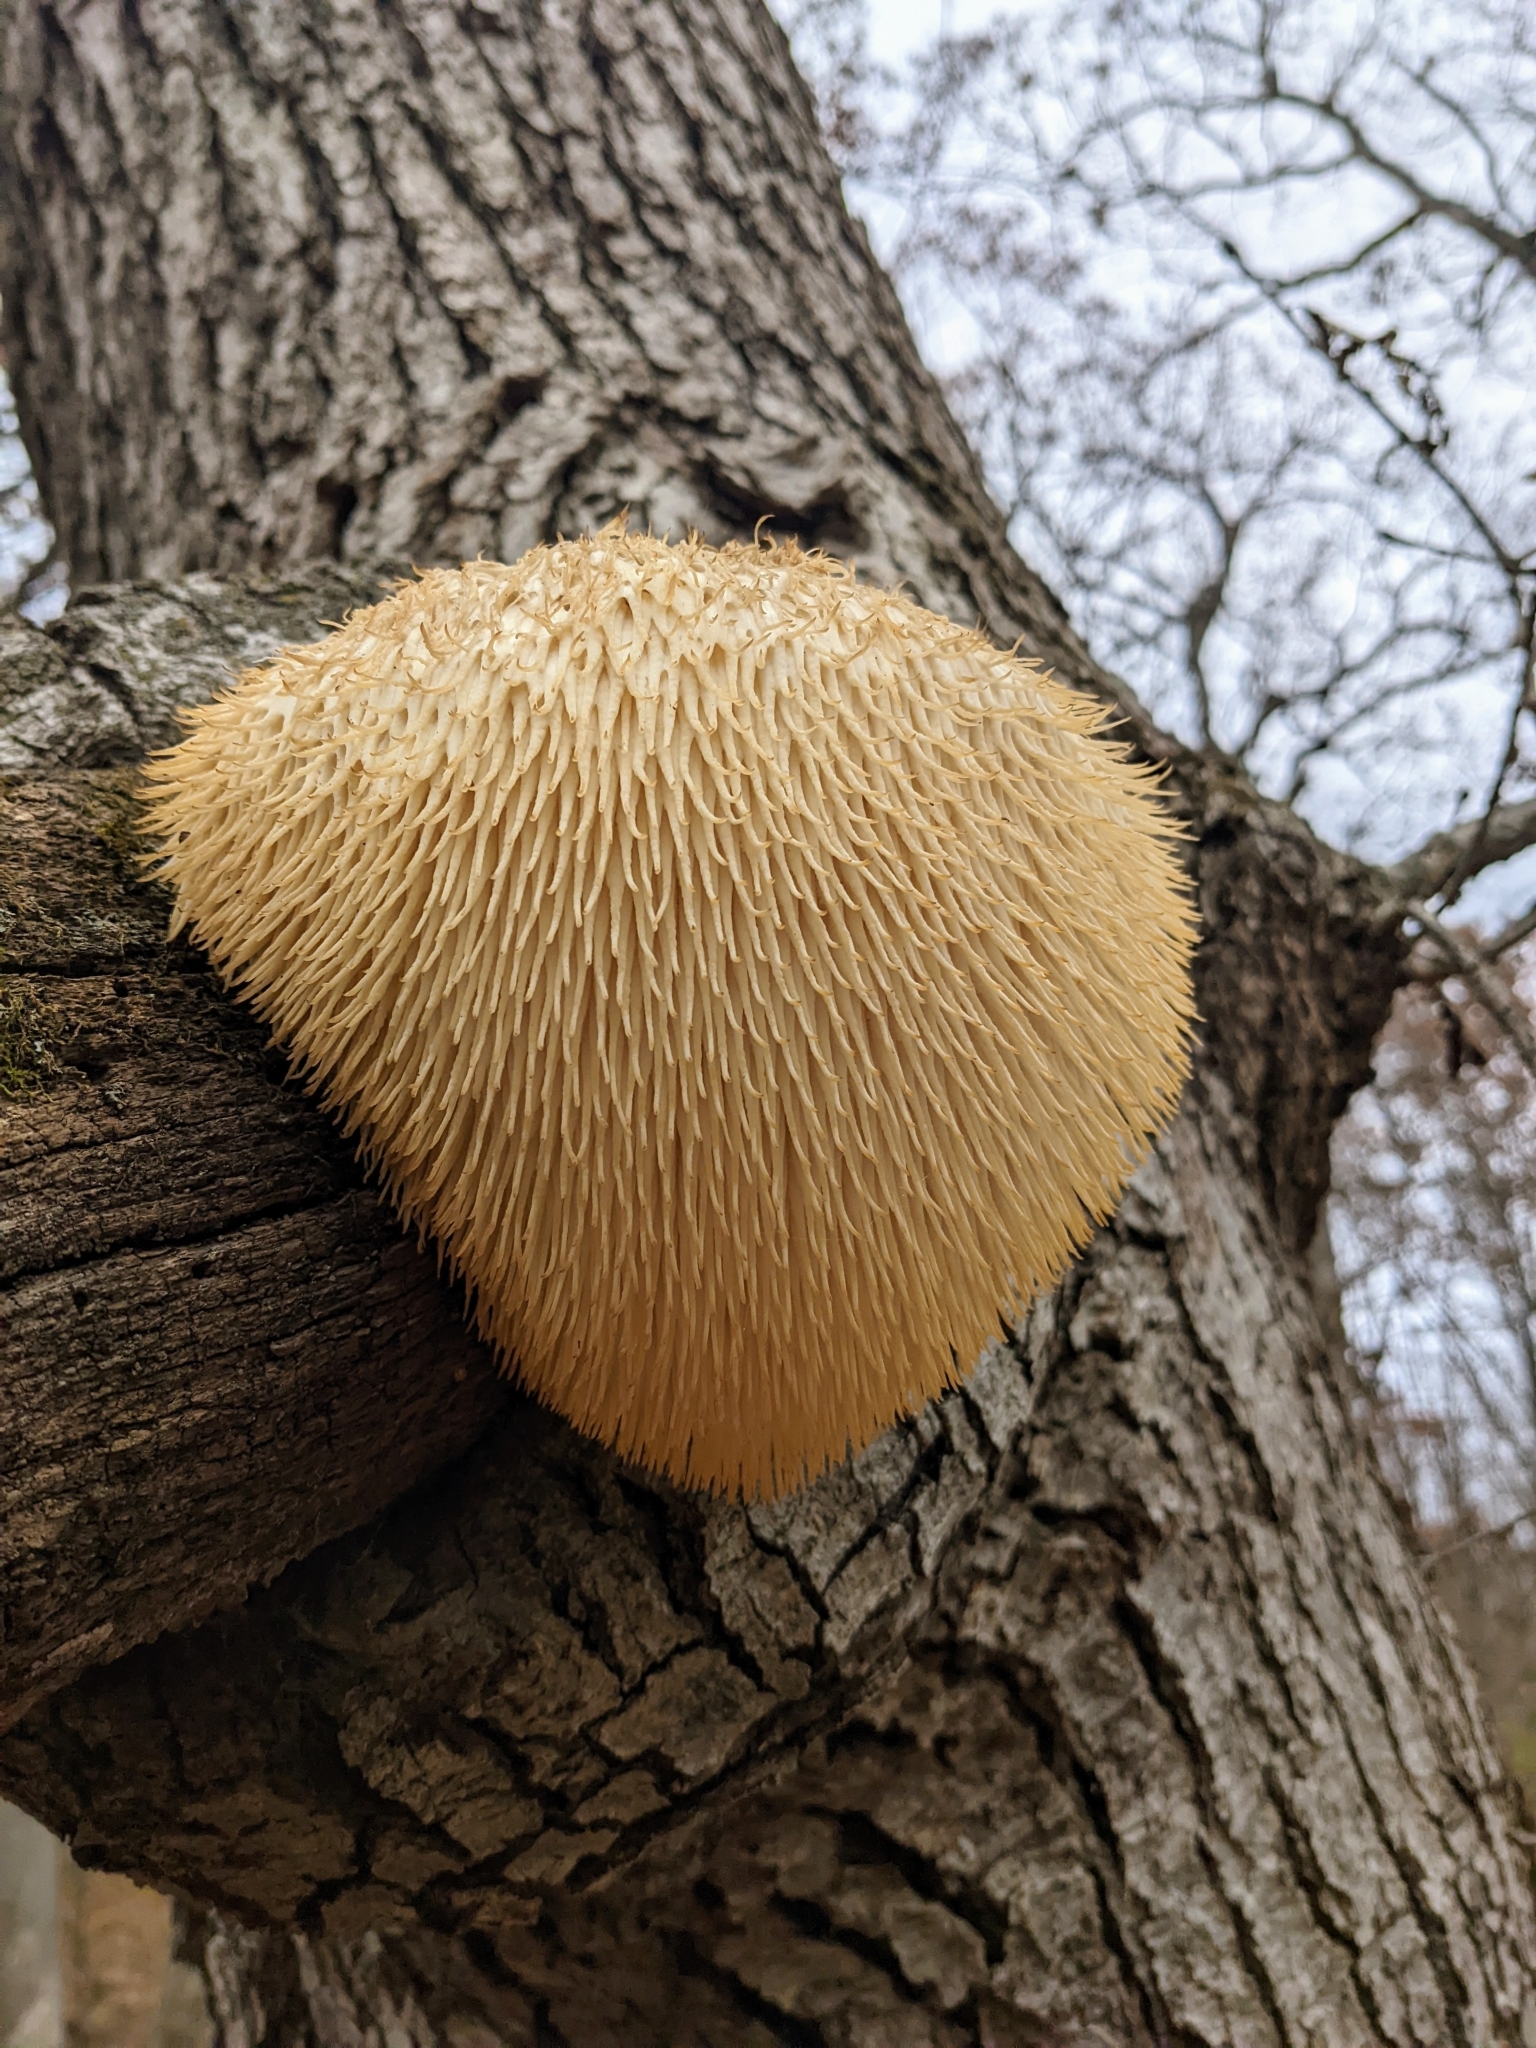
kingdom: Fungi
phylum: Basidiomycota
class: Agaricomycetes
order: Russulales
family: Hericiaceae
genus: Hericium
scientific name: Hericium erinaceus
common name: Bearded tooth
